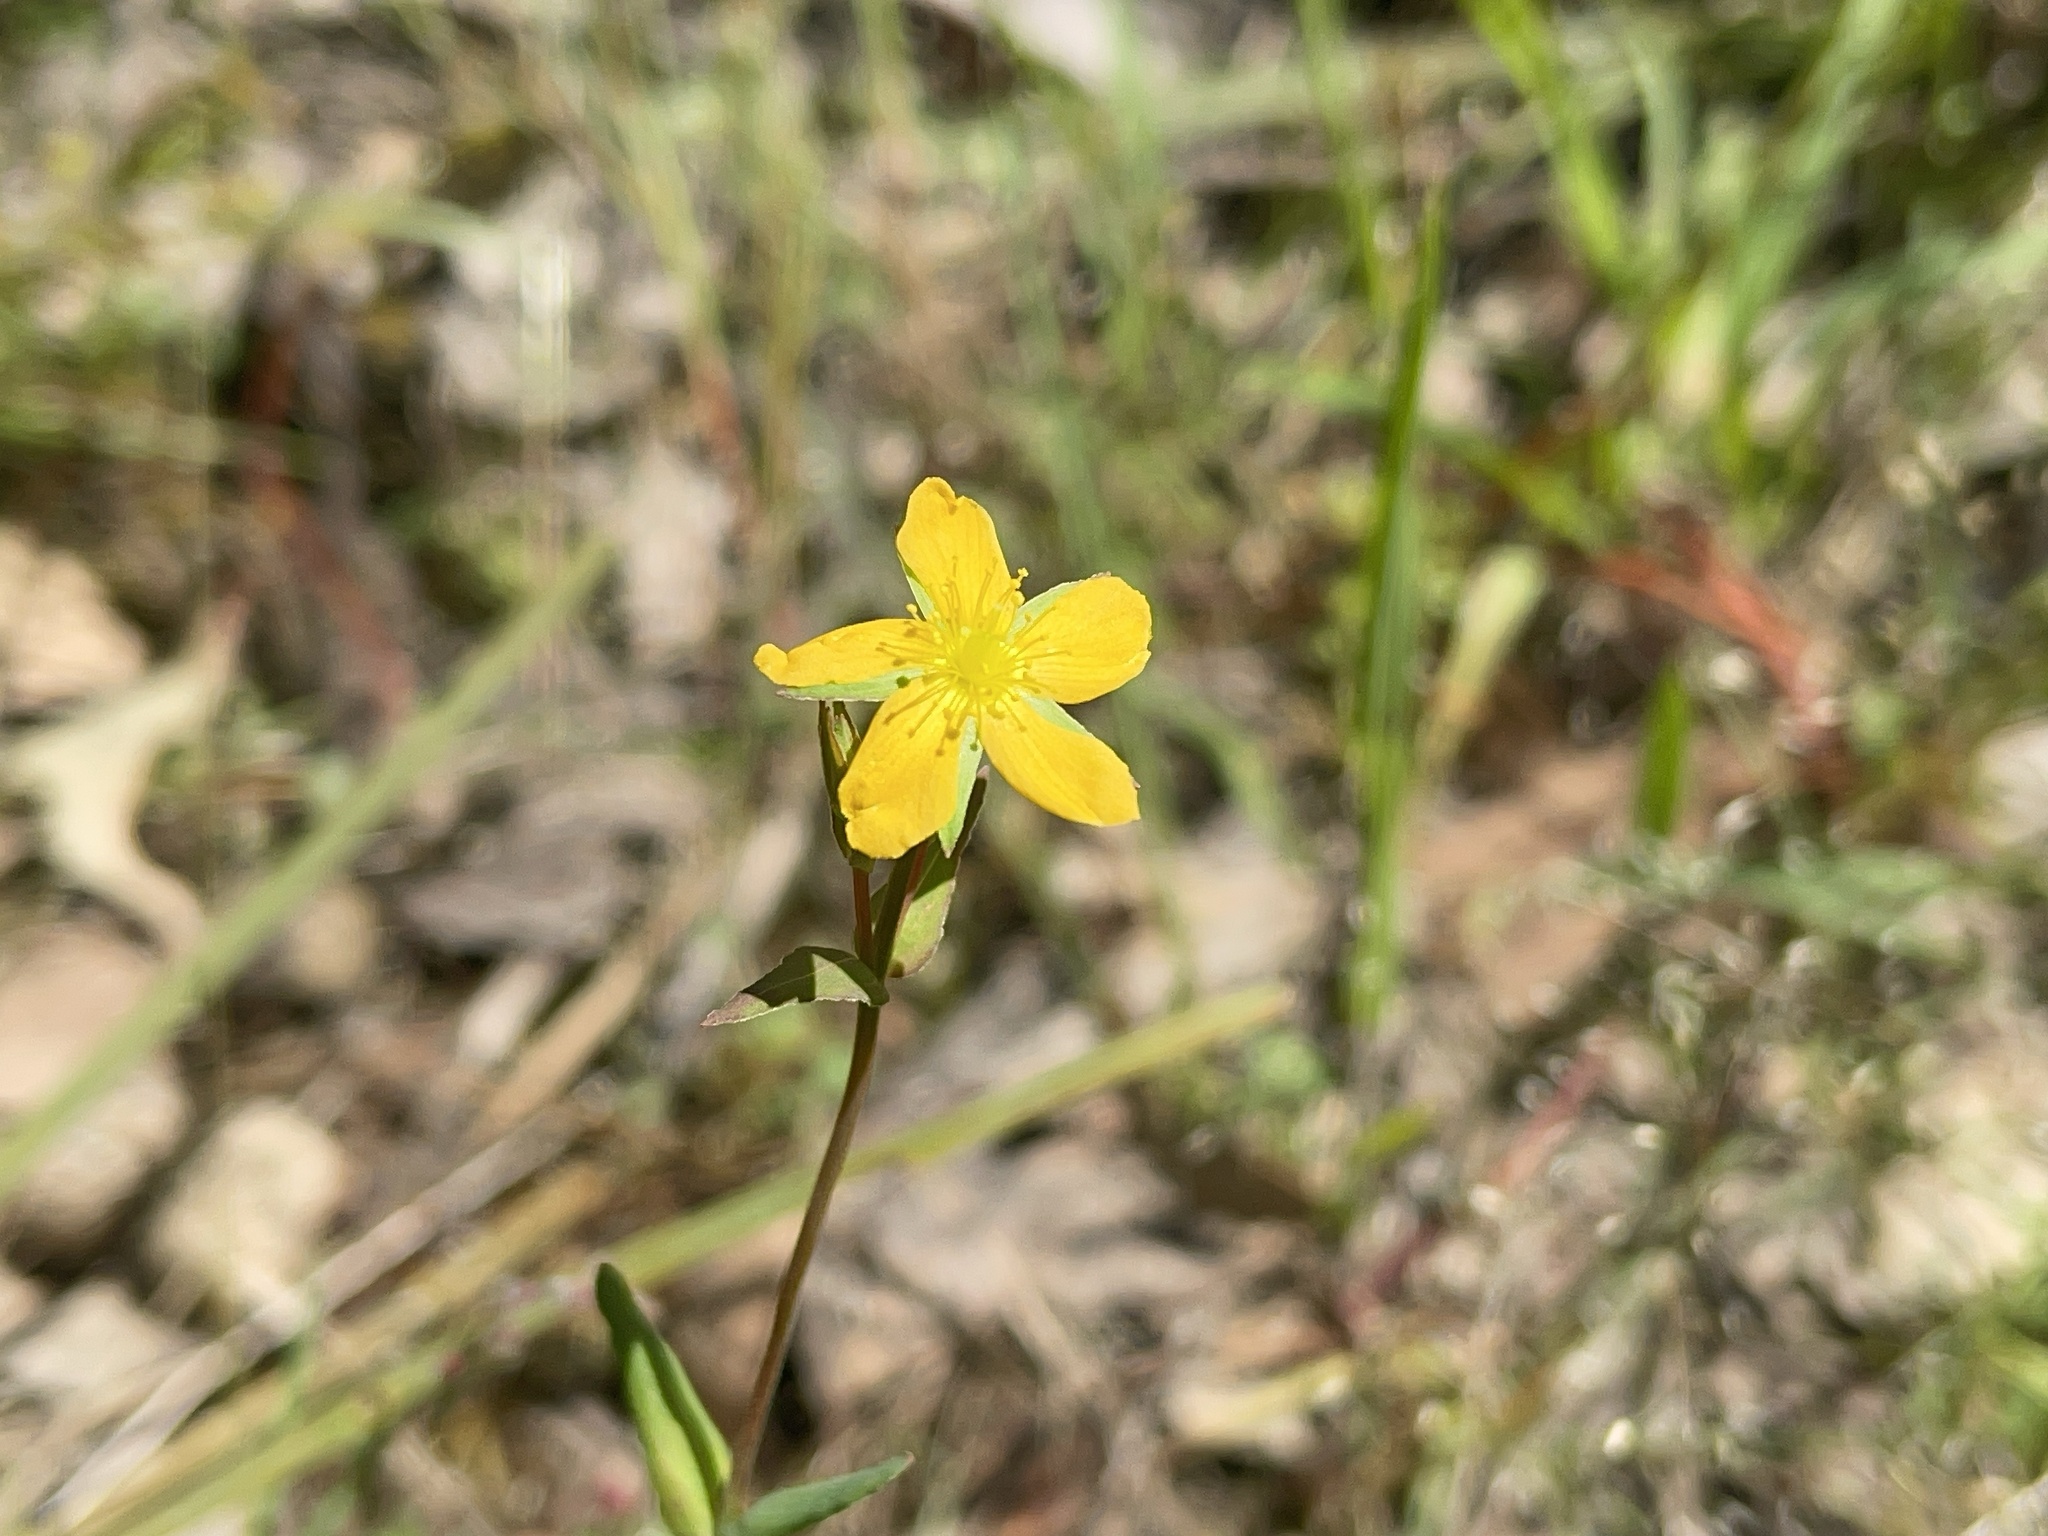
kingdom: Plantae
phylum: Tracheophyta
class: Magnoliopsida
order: Malpighiales
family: Hypericaceae
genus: Hypericum
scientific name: Hypericum gramineum
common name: Grassy st. johnswort
